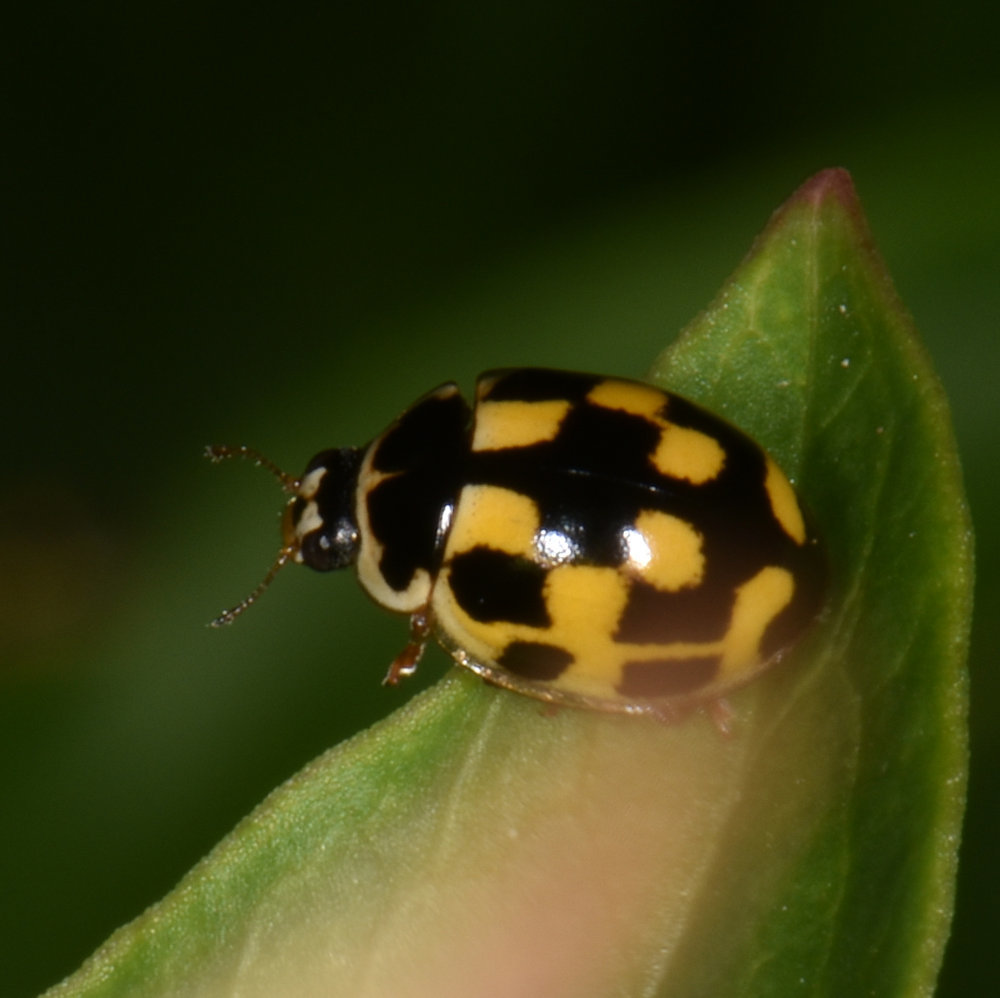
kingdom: Animalia
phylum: Arthropoda
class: Insecta
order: Coleoptera
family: Coccinellidae
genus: Propylaea
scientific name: Propylaea quatuordecimpunctata
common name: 14-spotted ladybird beetle
